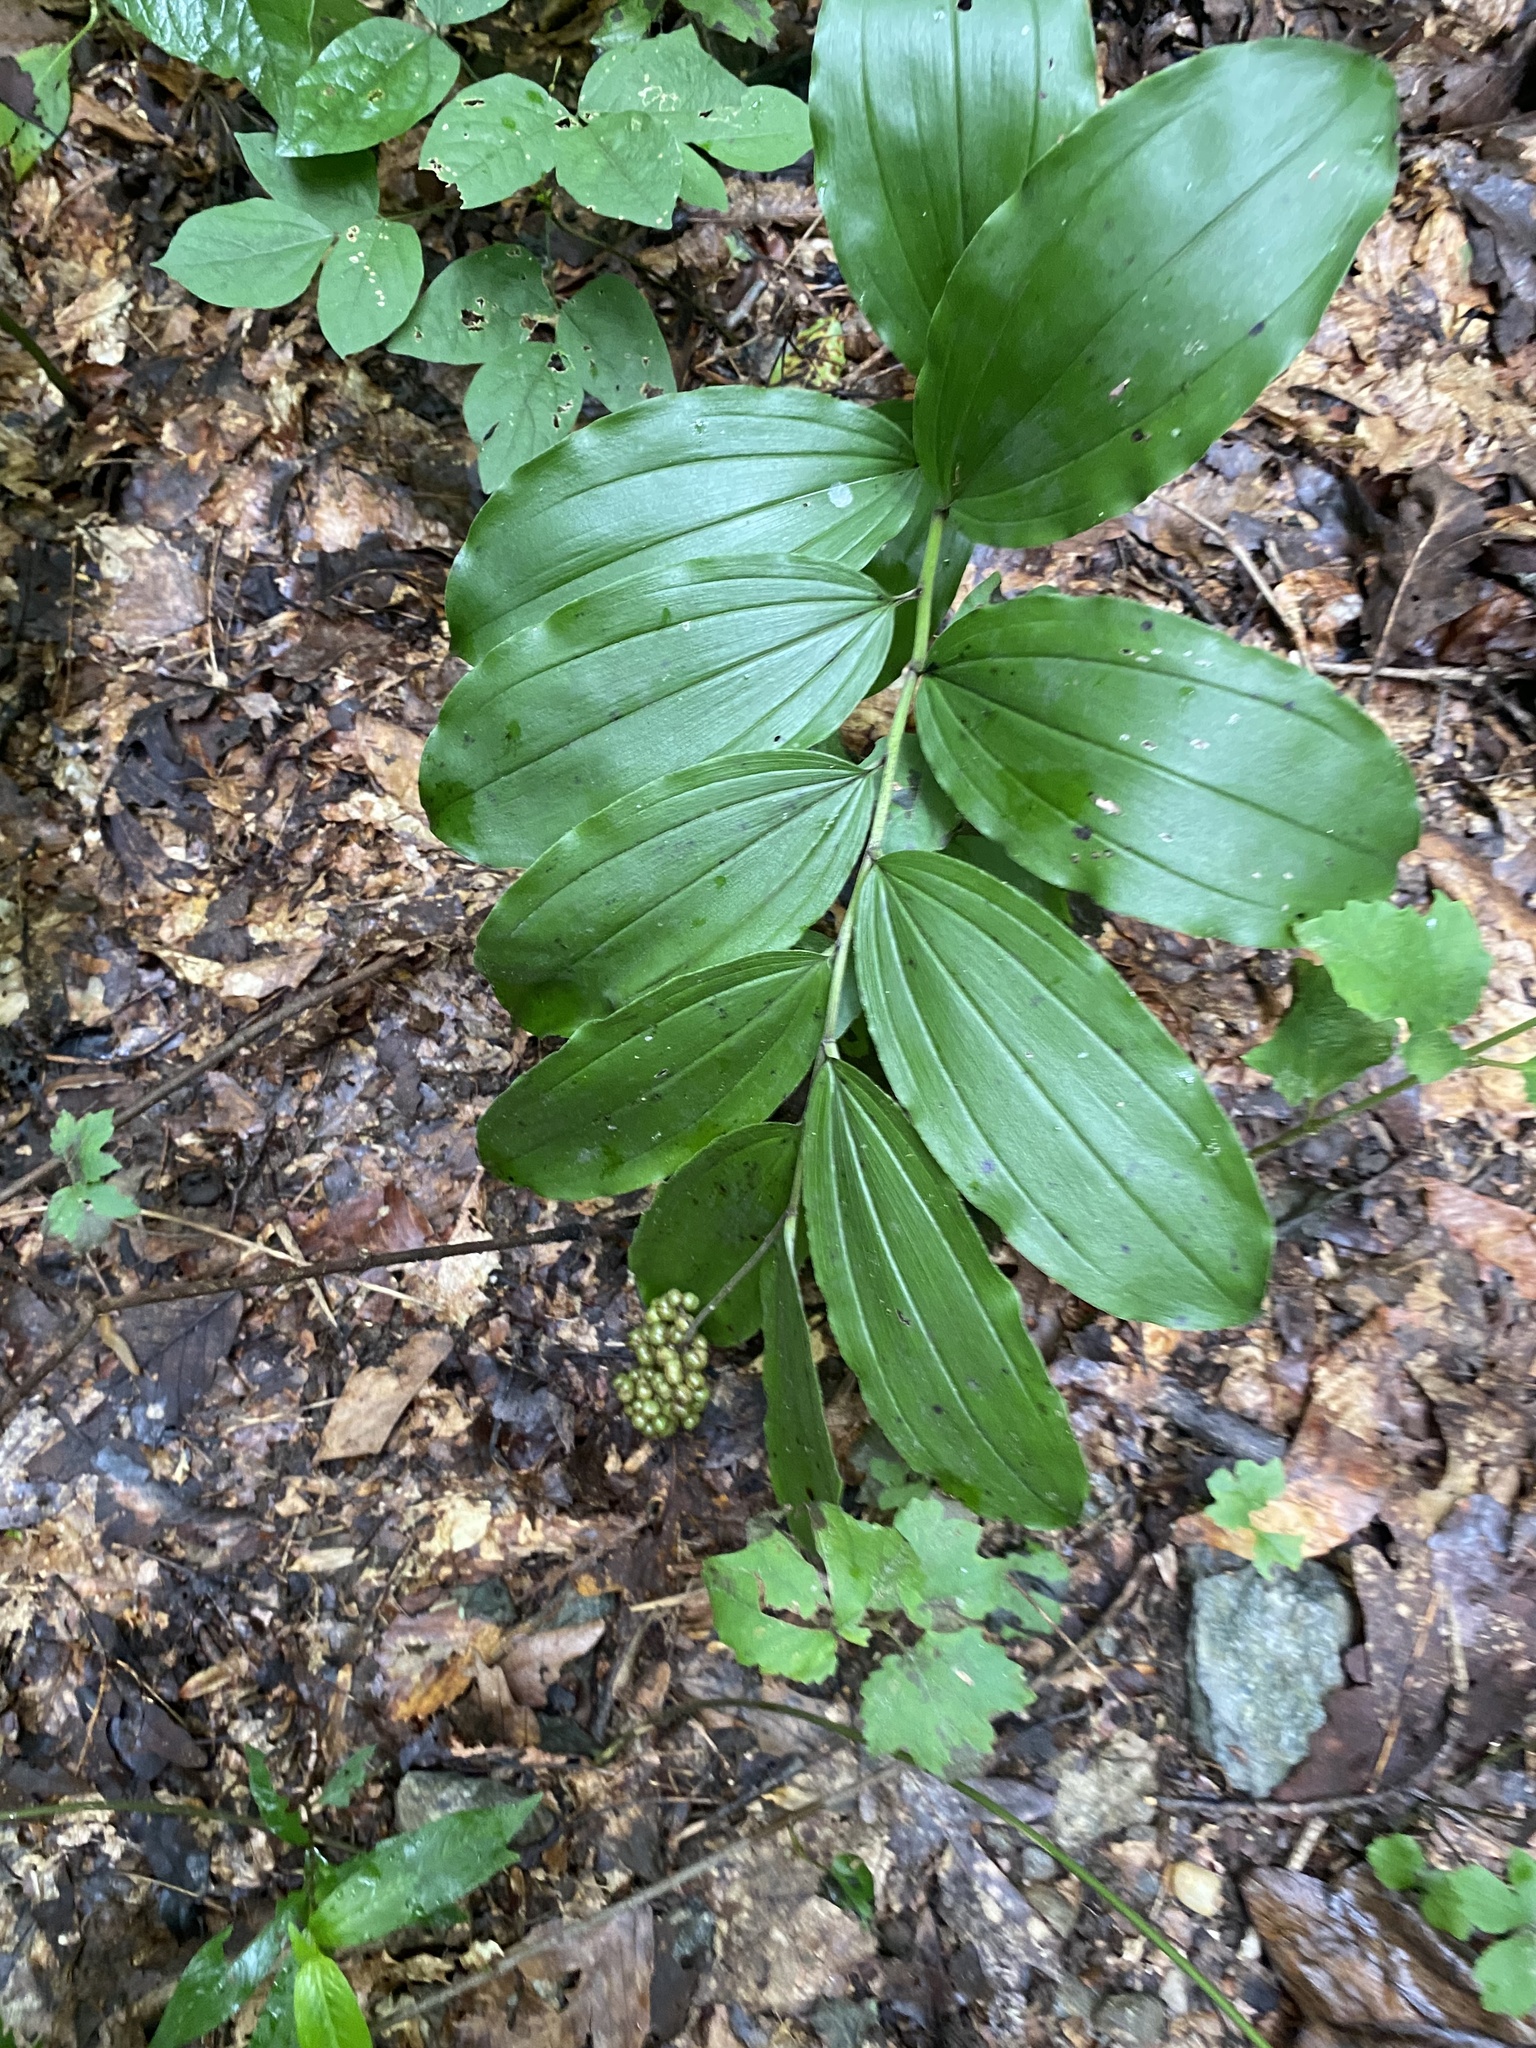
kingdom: Plantae
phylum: Tracheophyta
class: Liliopsida
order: Asparagales
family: Asparagaceae
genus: Maianthemum
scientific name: Maianthemum racemosum
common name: False spikenard
